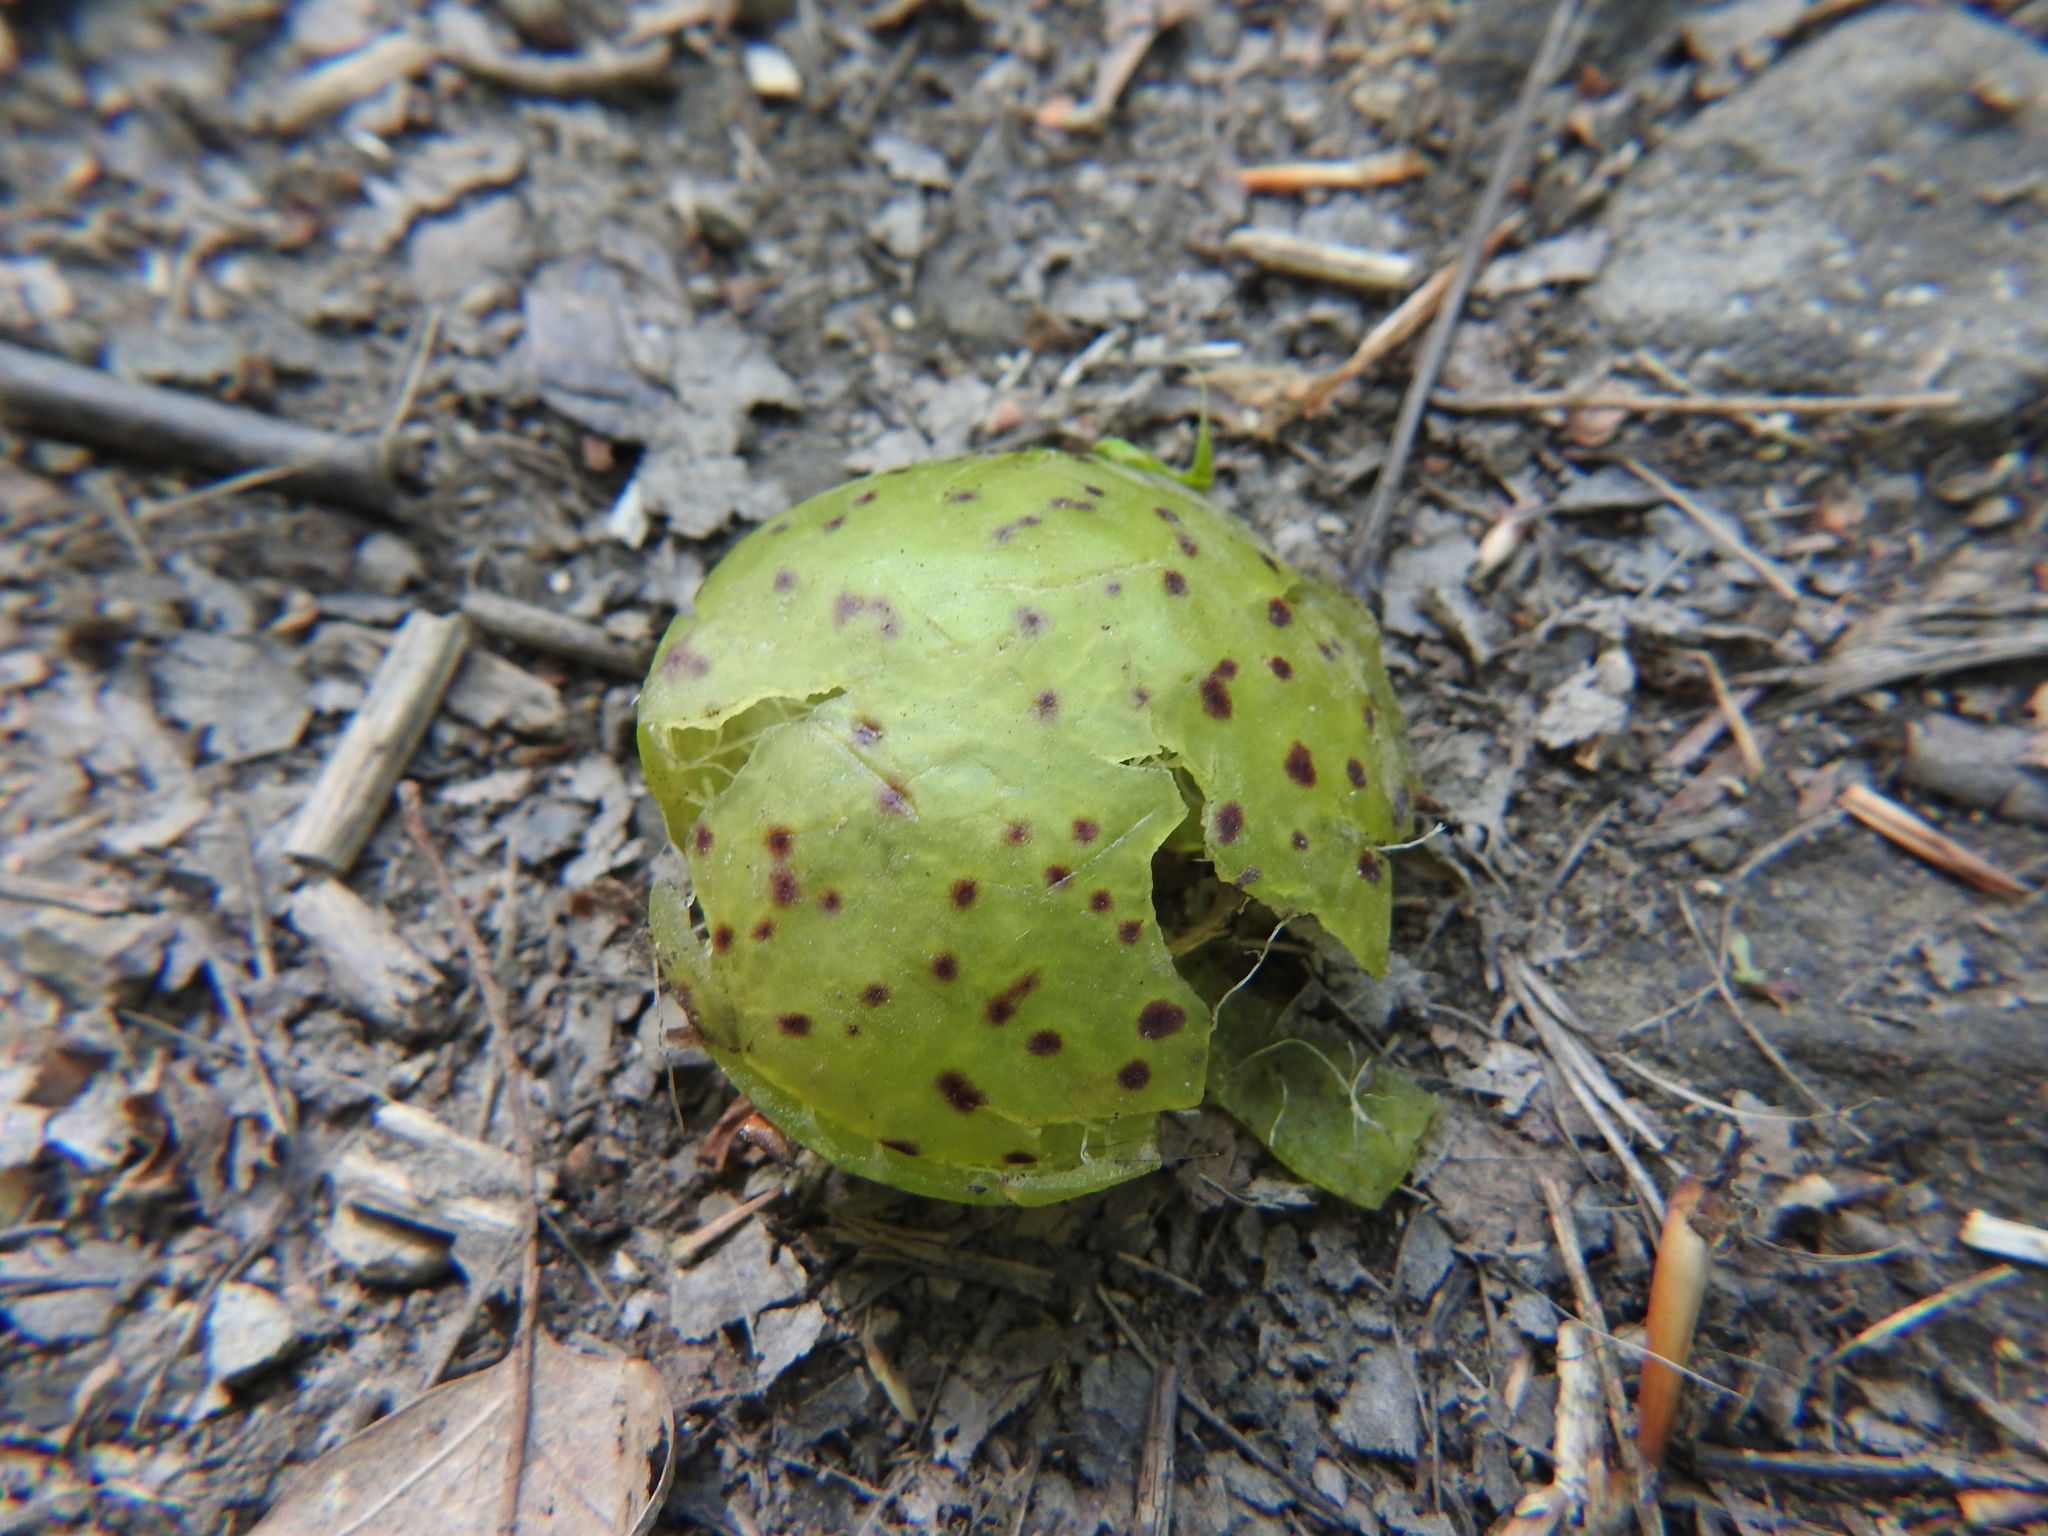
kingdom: Animalia
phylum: Arthropoda
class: Insecta
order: Hymenoptera
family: Cynipidae
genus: Amphibolips
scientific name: Amphibolips
